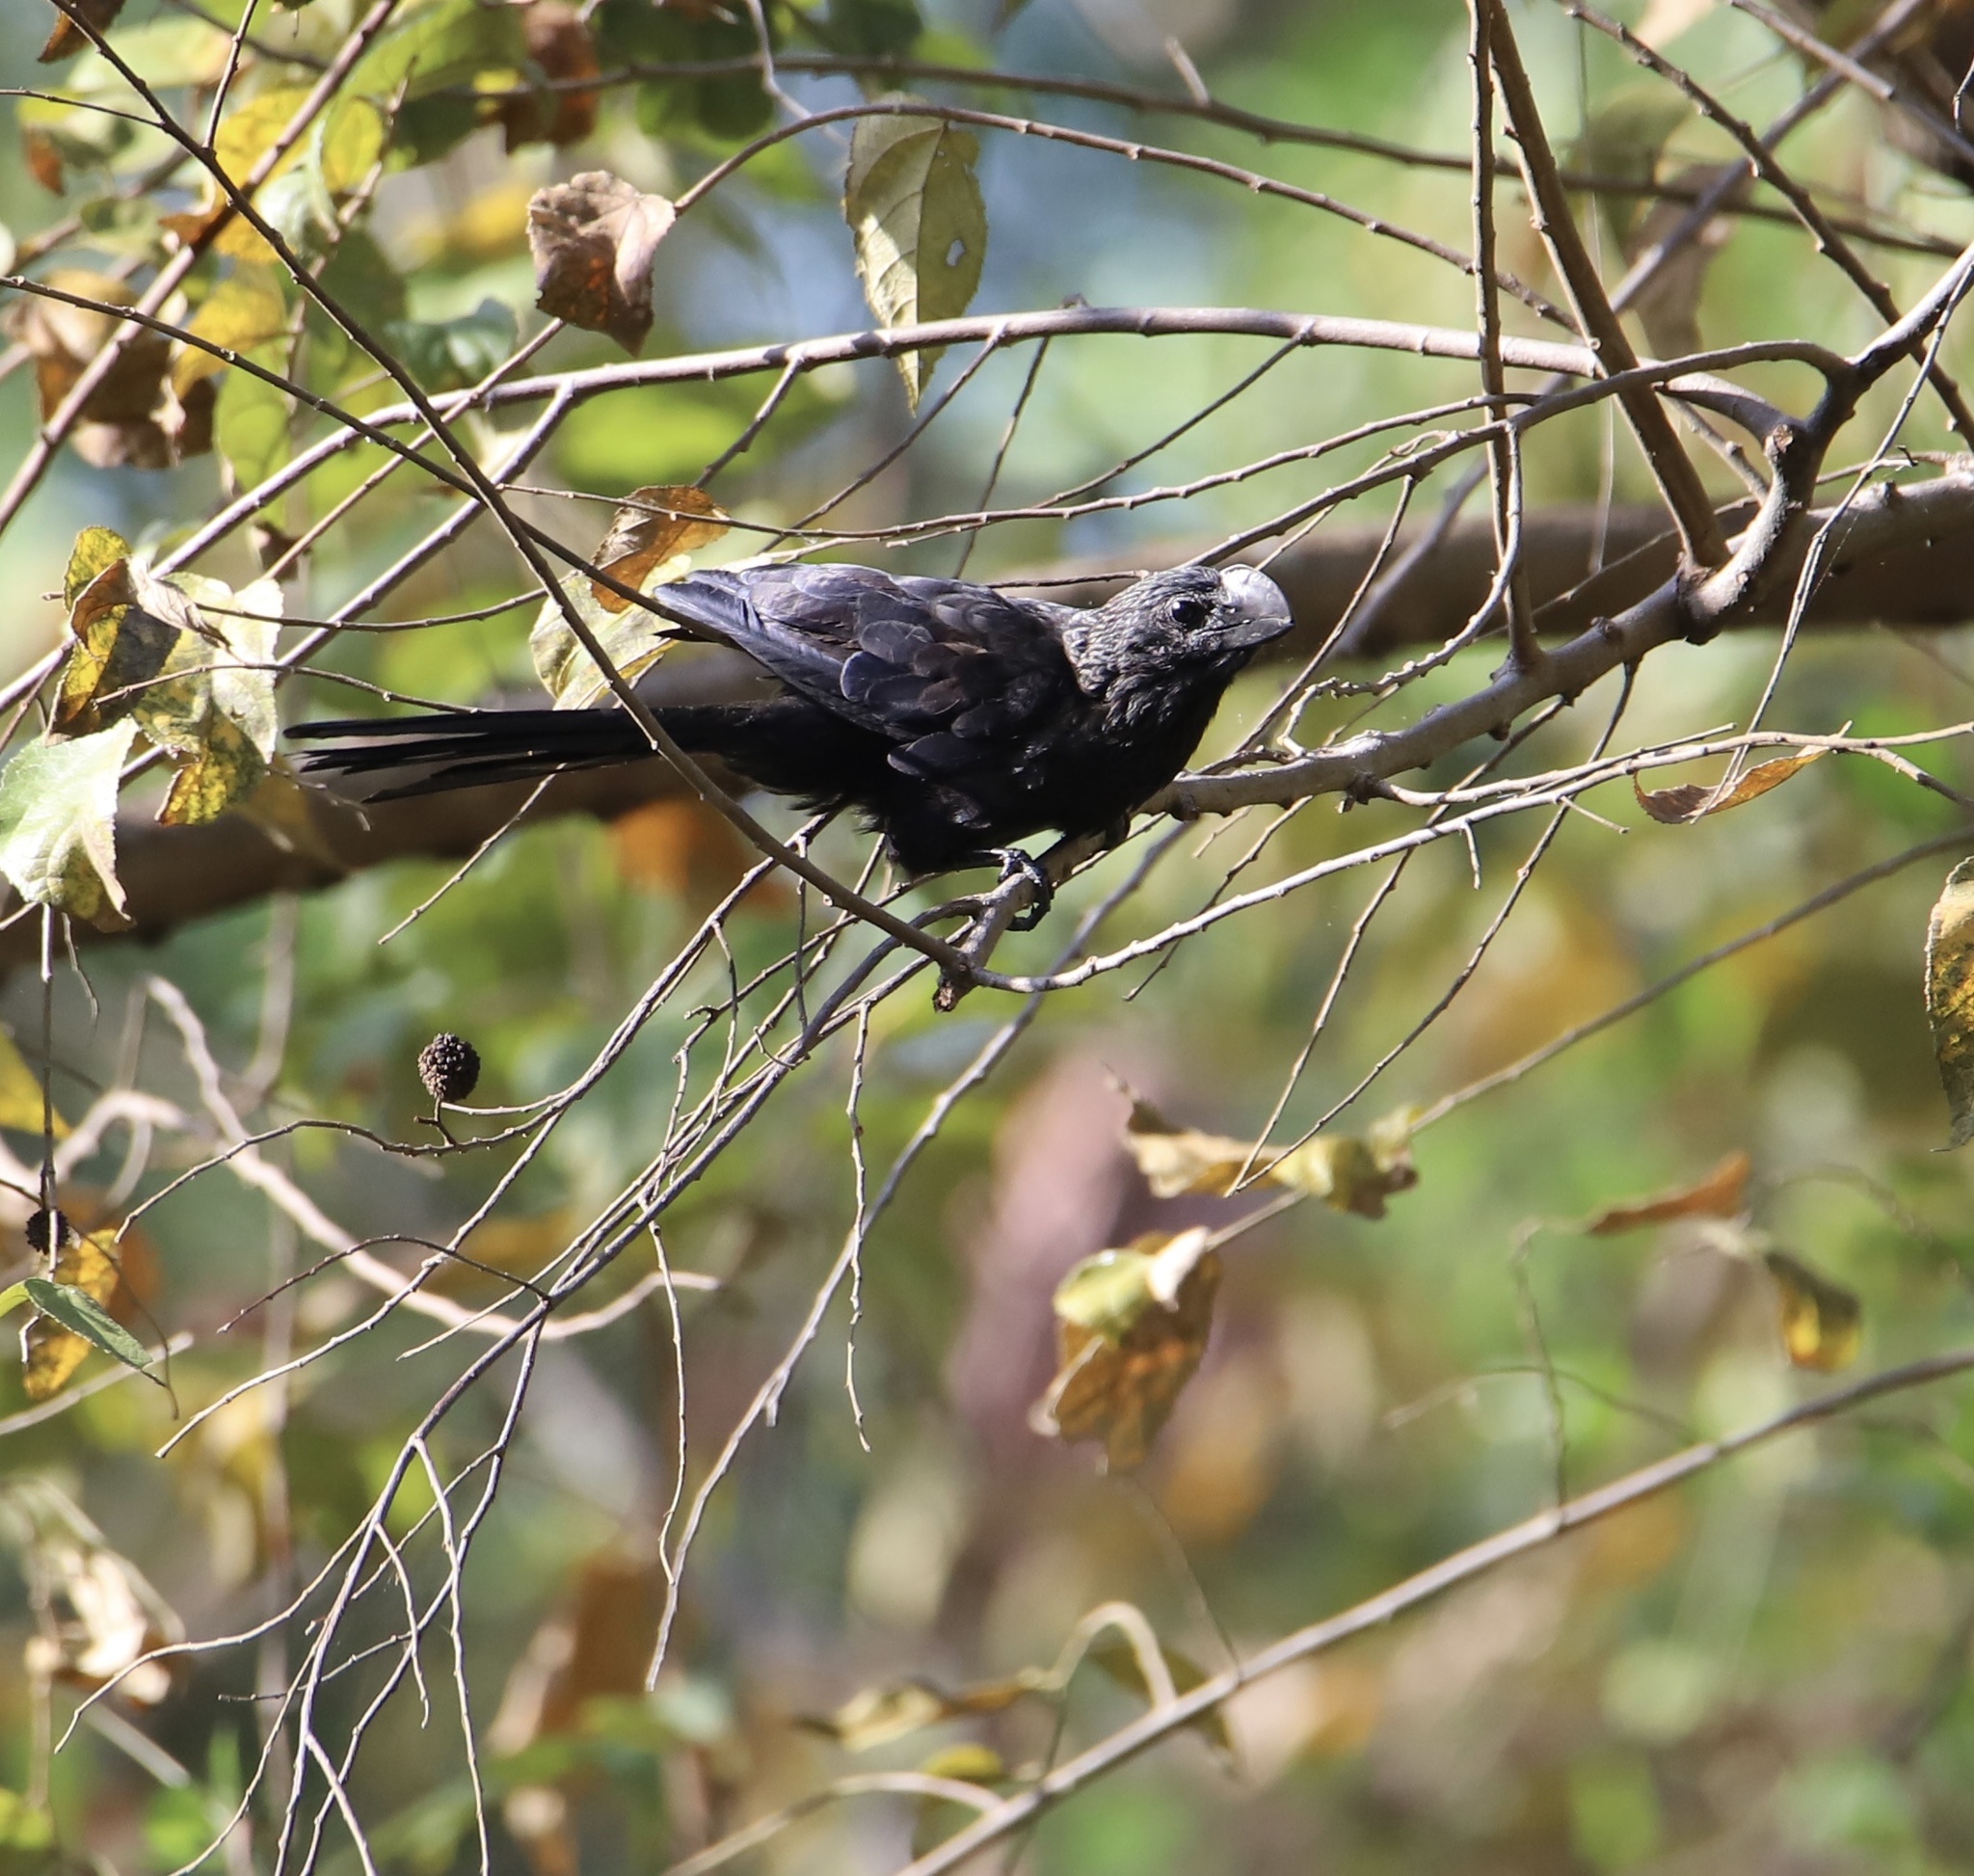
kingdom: Animalia
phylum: Chordata
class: Aves
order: Cuculiformes
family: Cuculidae
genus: Crotophaga
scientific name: Crotophaga ani
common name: Smooth-billed ani
